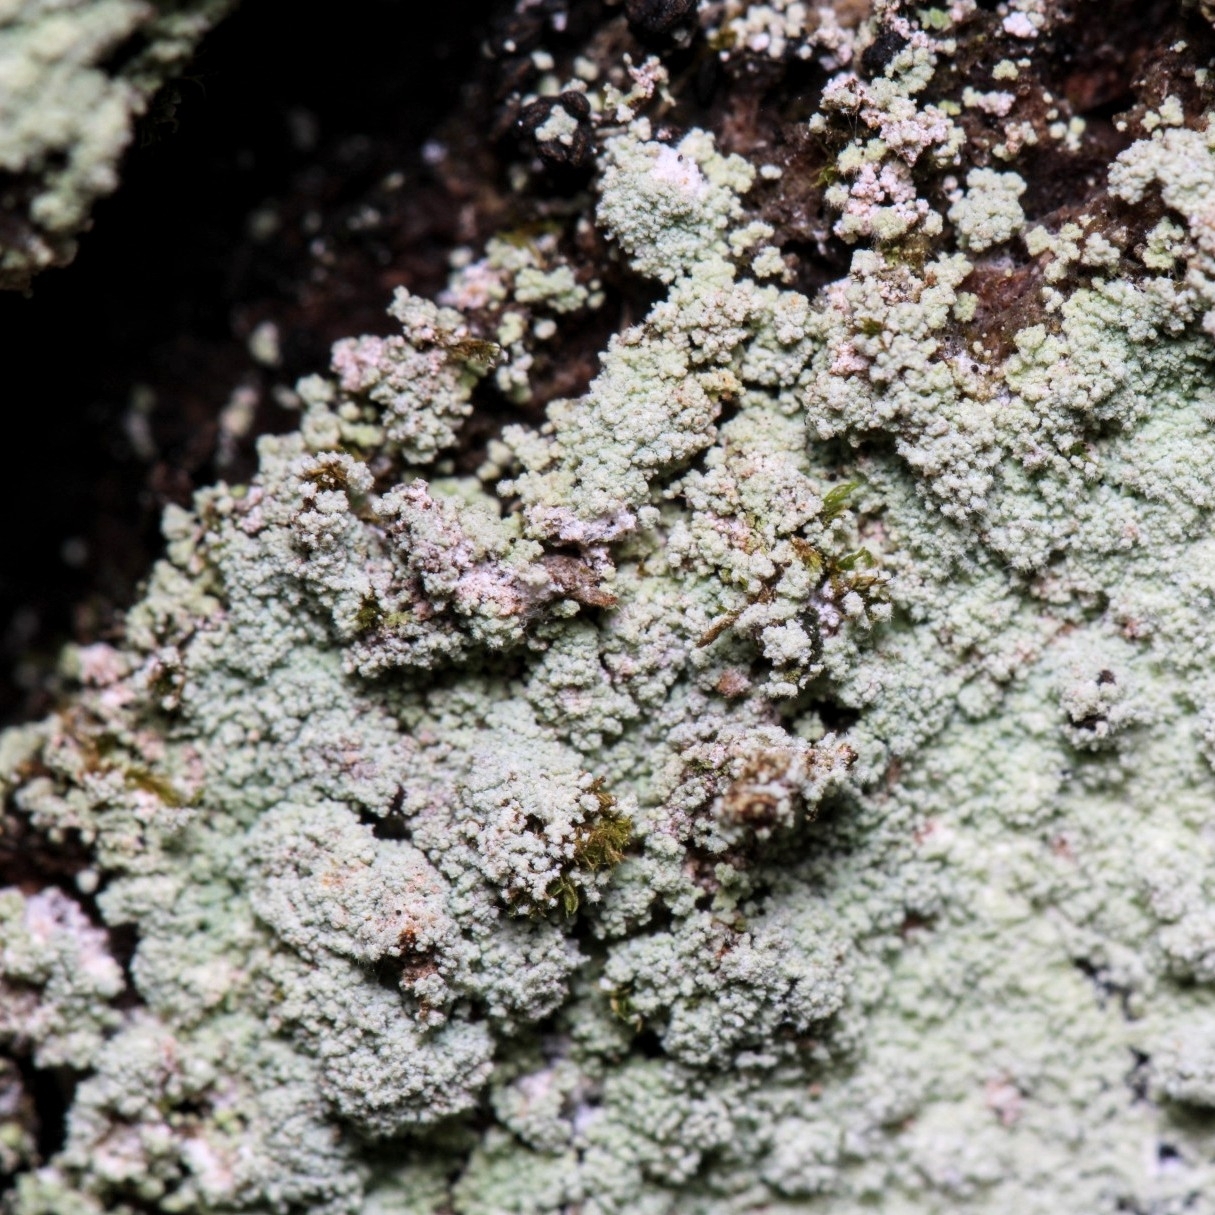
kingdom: Fungi
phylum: Ascomycota
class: Lecanoromycetes
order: Lecanorales
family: Stereocaulaceae
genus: Lepraria
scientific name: Lepraria lobificans
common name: Fluffy dust lichen
